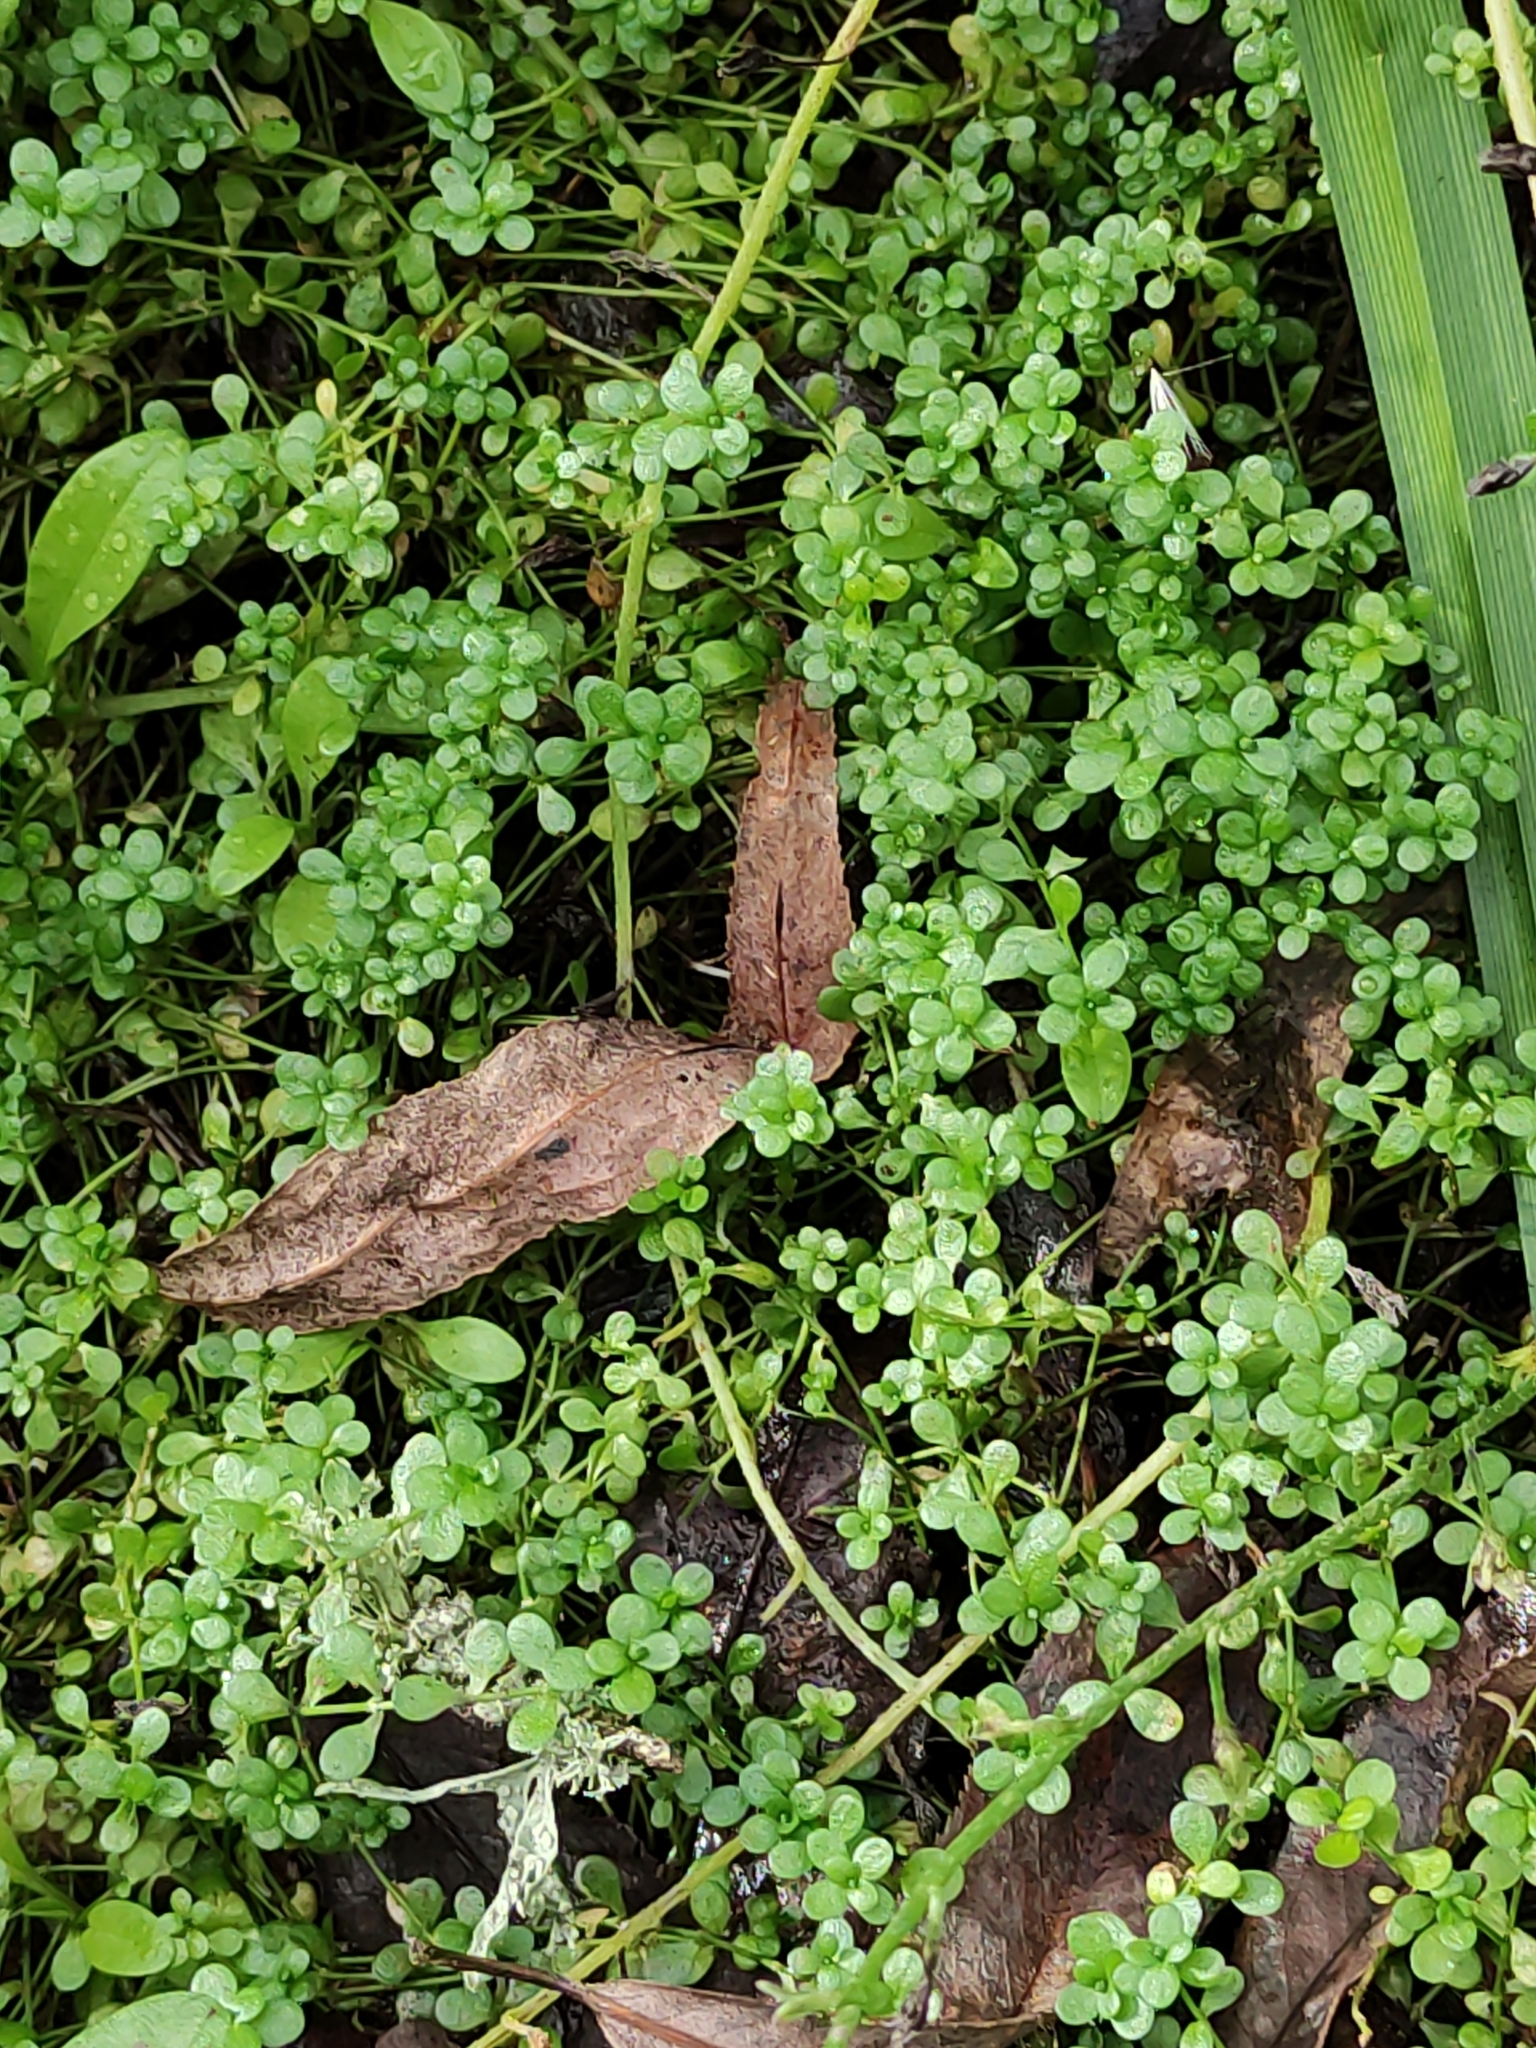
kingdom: Plantae
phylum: Tracheophyta
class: Magnoliopsida
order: Lamiales
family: Plantaginaceae
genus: Callitriche
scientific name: Callitriche stagnalis
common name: Common water-starwort
